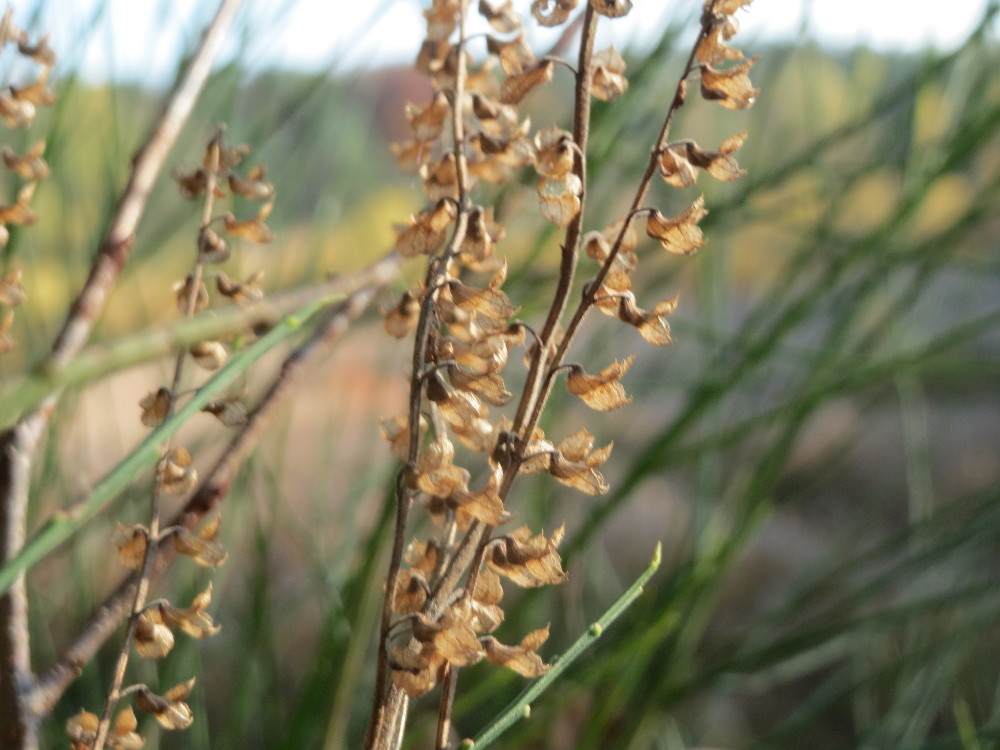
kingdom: Plantae
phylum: Tracheophyta
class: Magnoliopsida
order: Lamiales
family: Lamiaceae
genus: Teucrium
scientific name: Teucrium scorodonia
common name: Woodland germander
